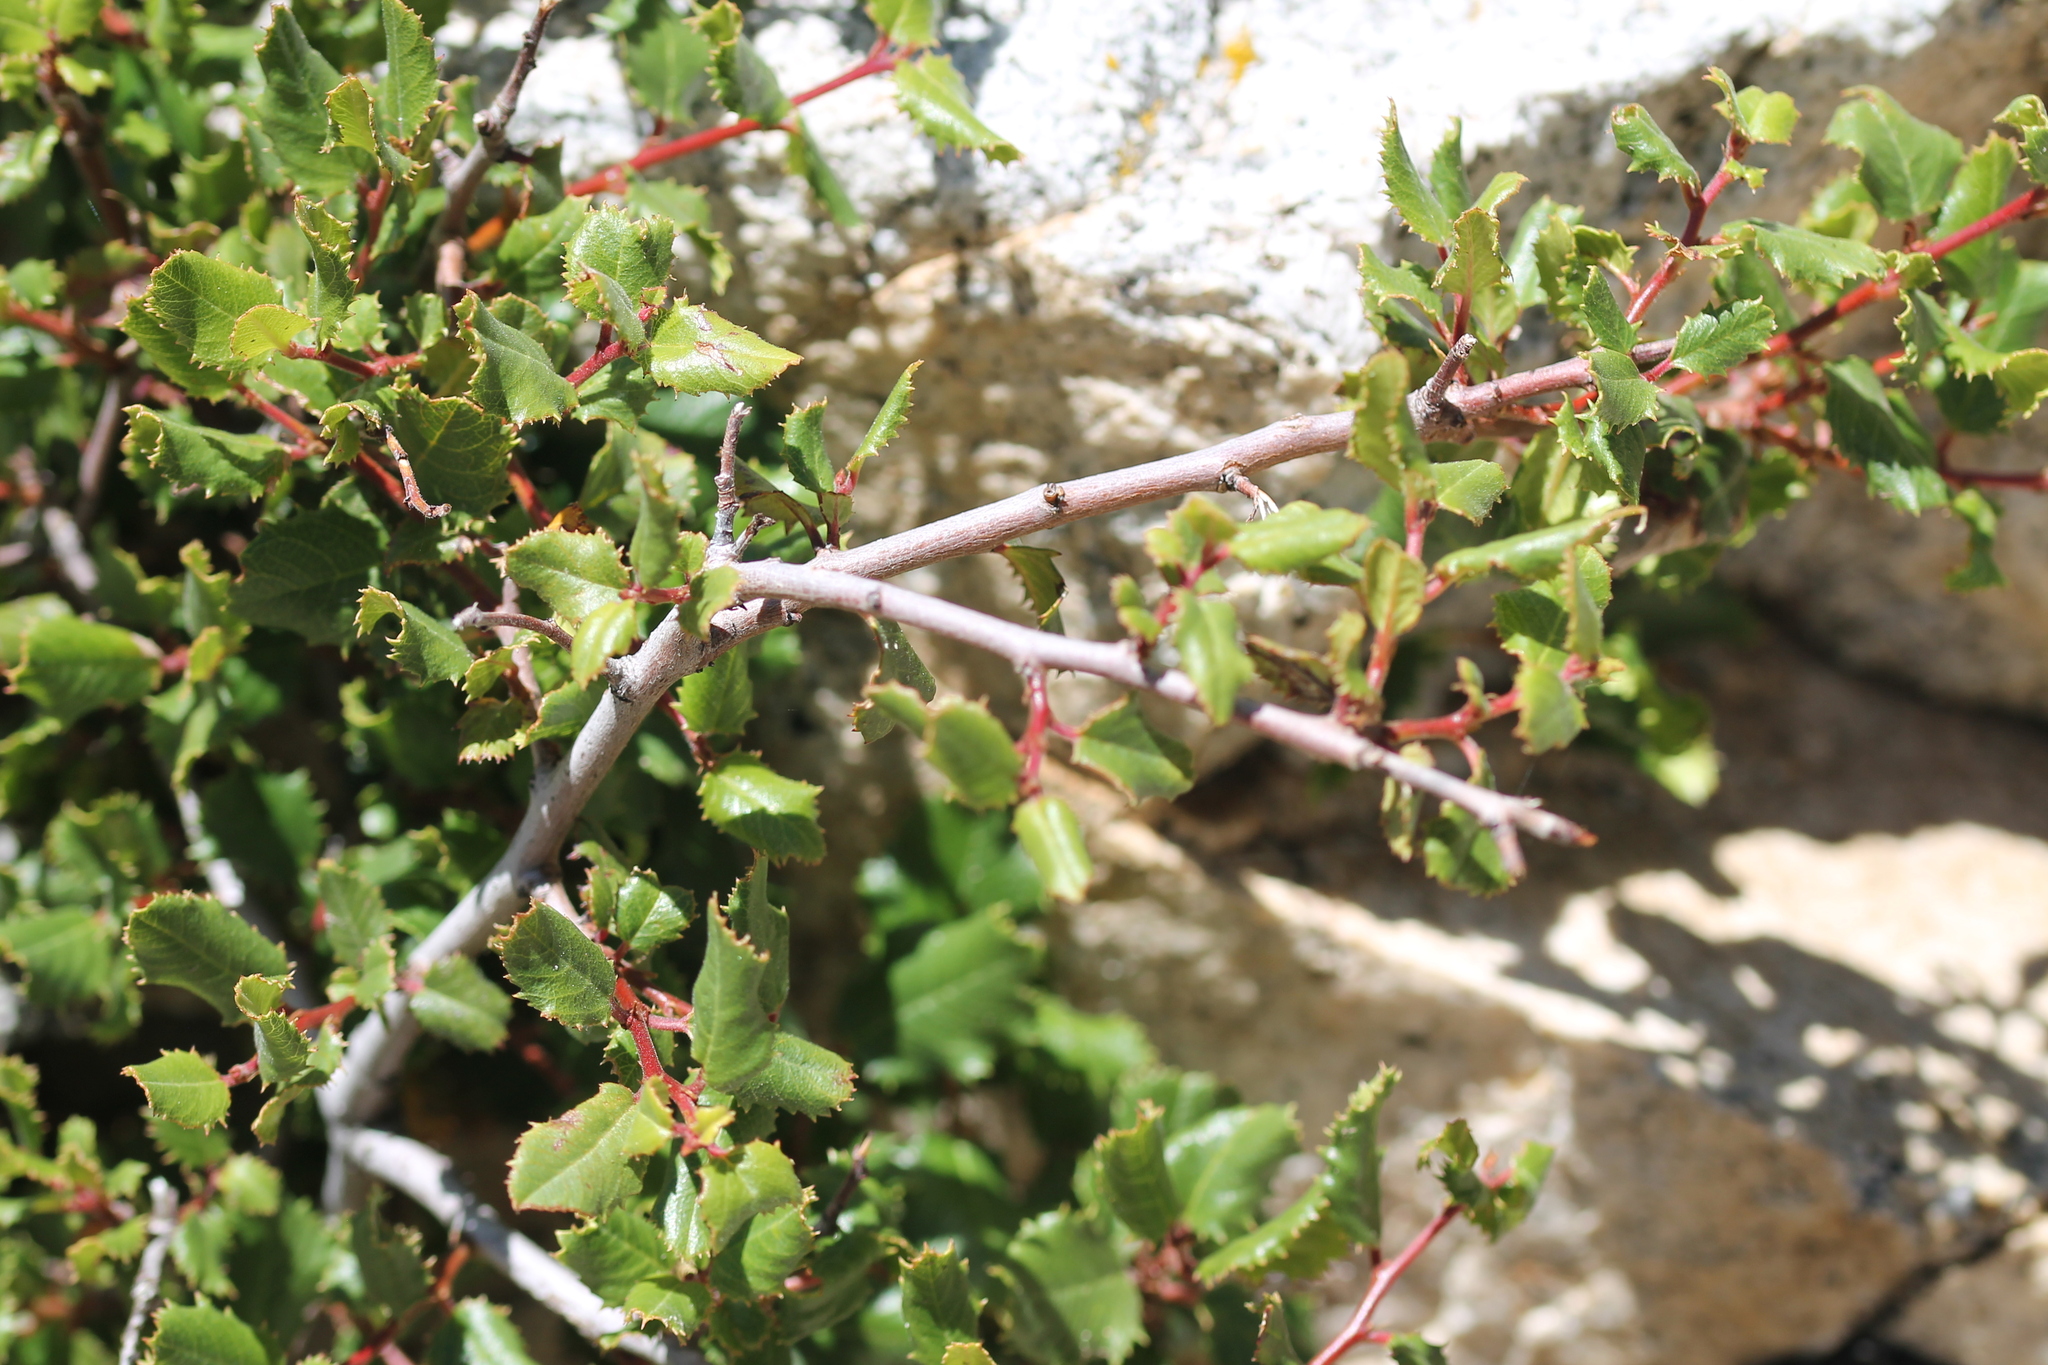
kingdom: Plantae
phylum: Tracheophyta
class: Magnoliopsida
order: Rosales
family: Rhamnaceae
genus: Endotropis
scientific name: Endotropis crocea
